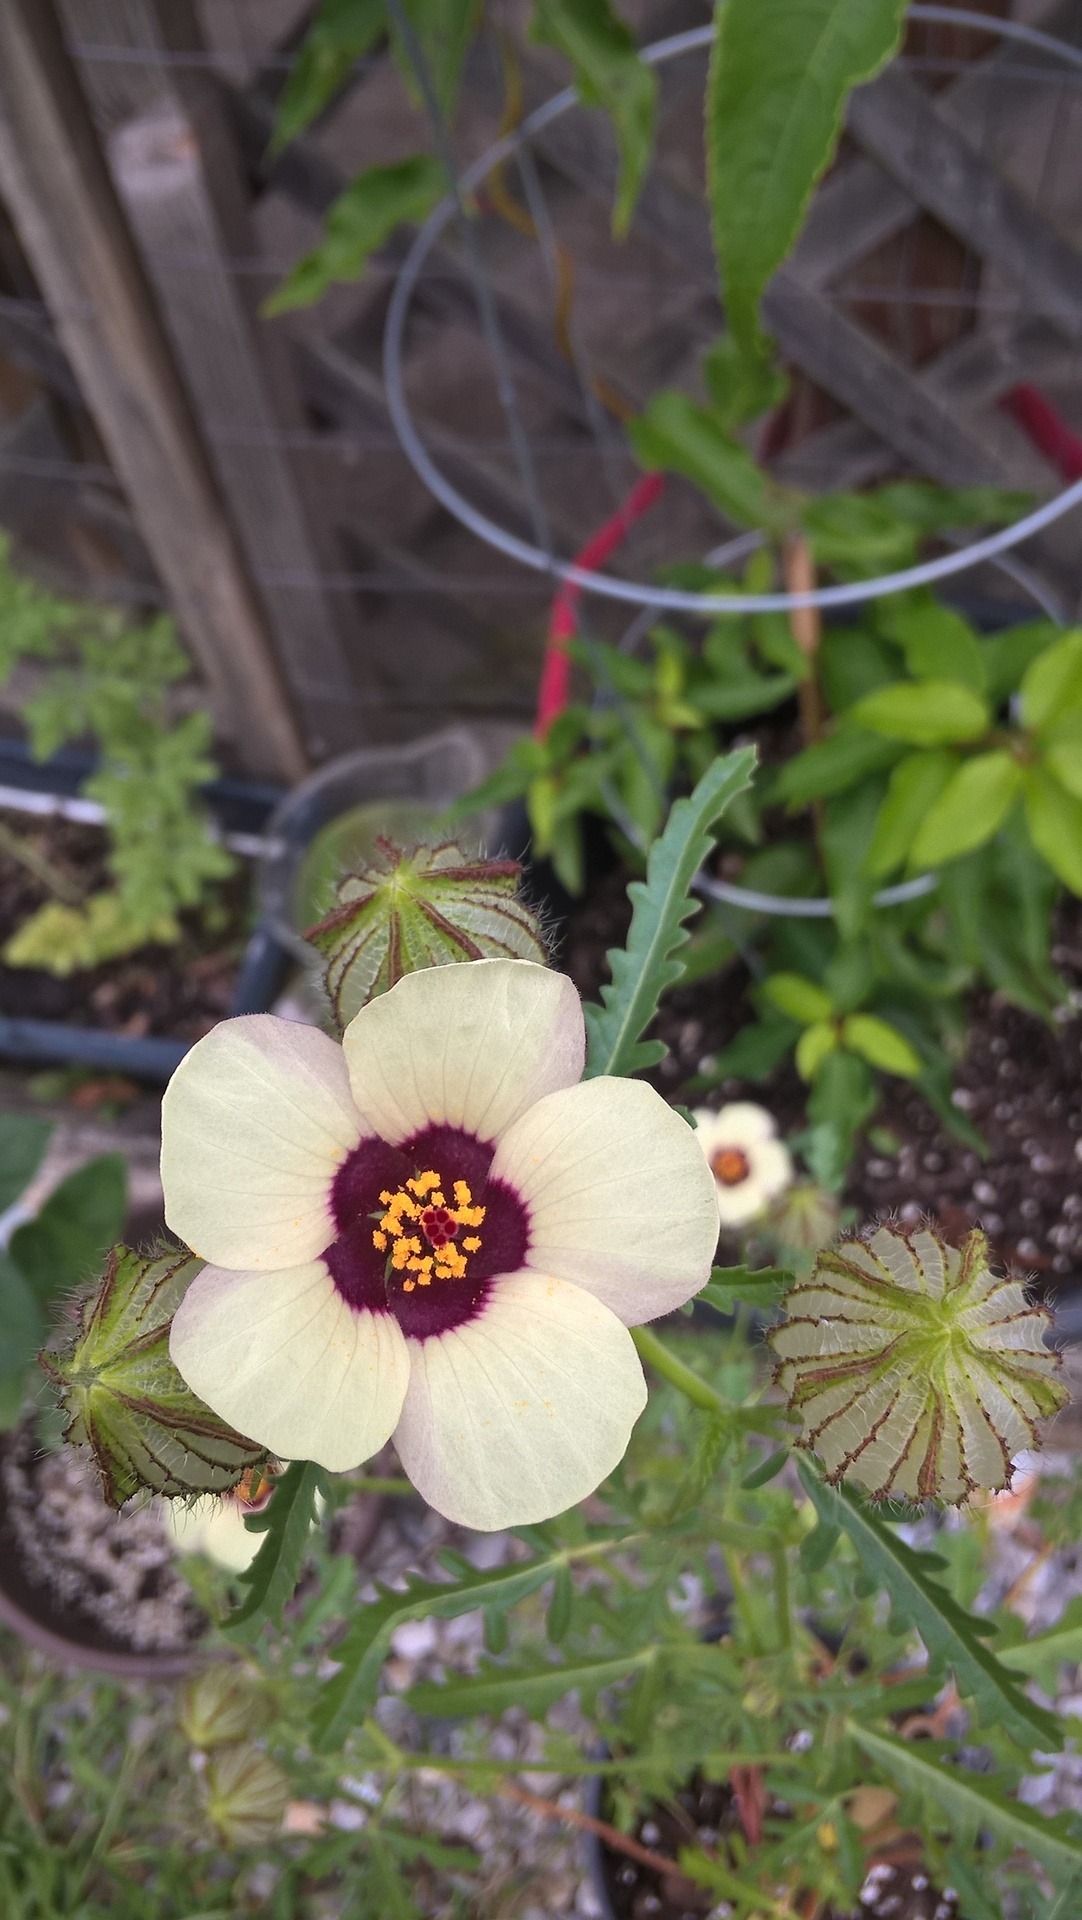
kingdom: Plantae
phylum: Tracheophyta
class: Magnoliopsida
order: Malvales
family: Malvaceae
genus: Hibiscus
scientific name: Hibiscus trionum
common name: Bladder ketmia
